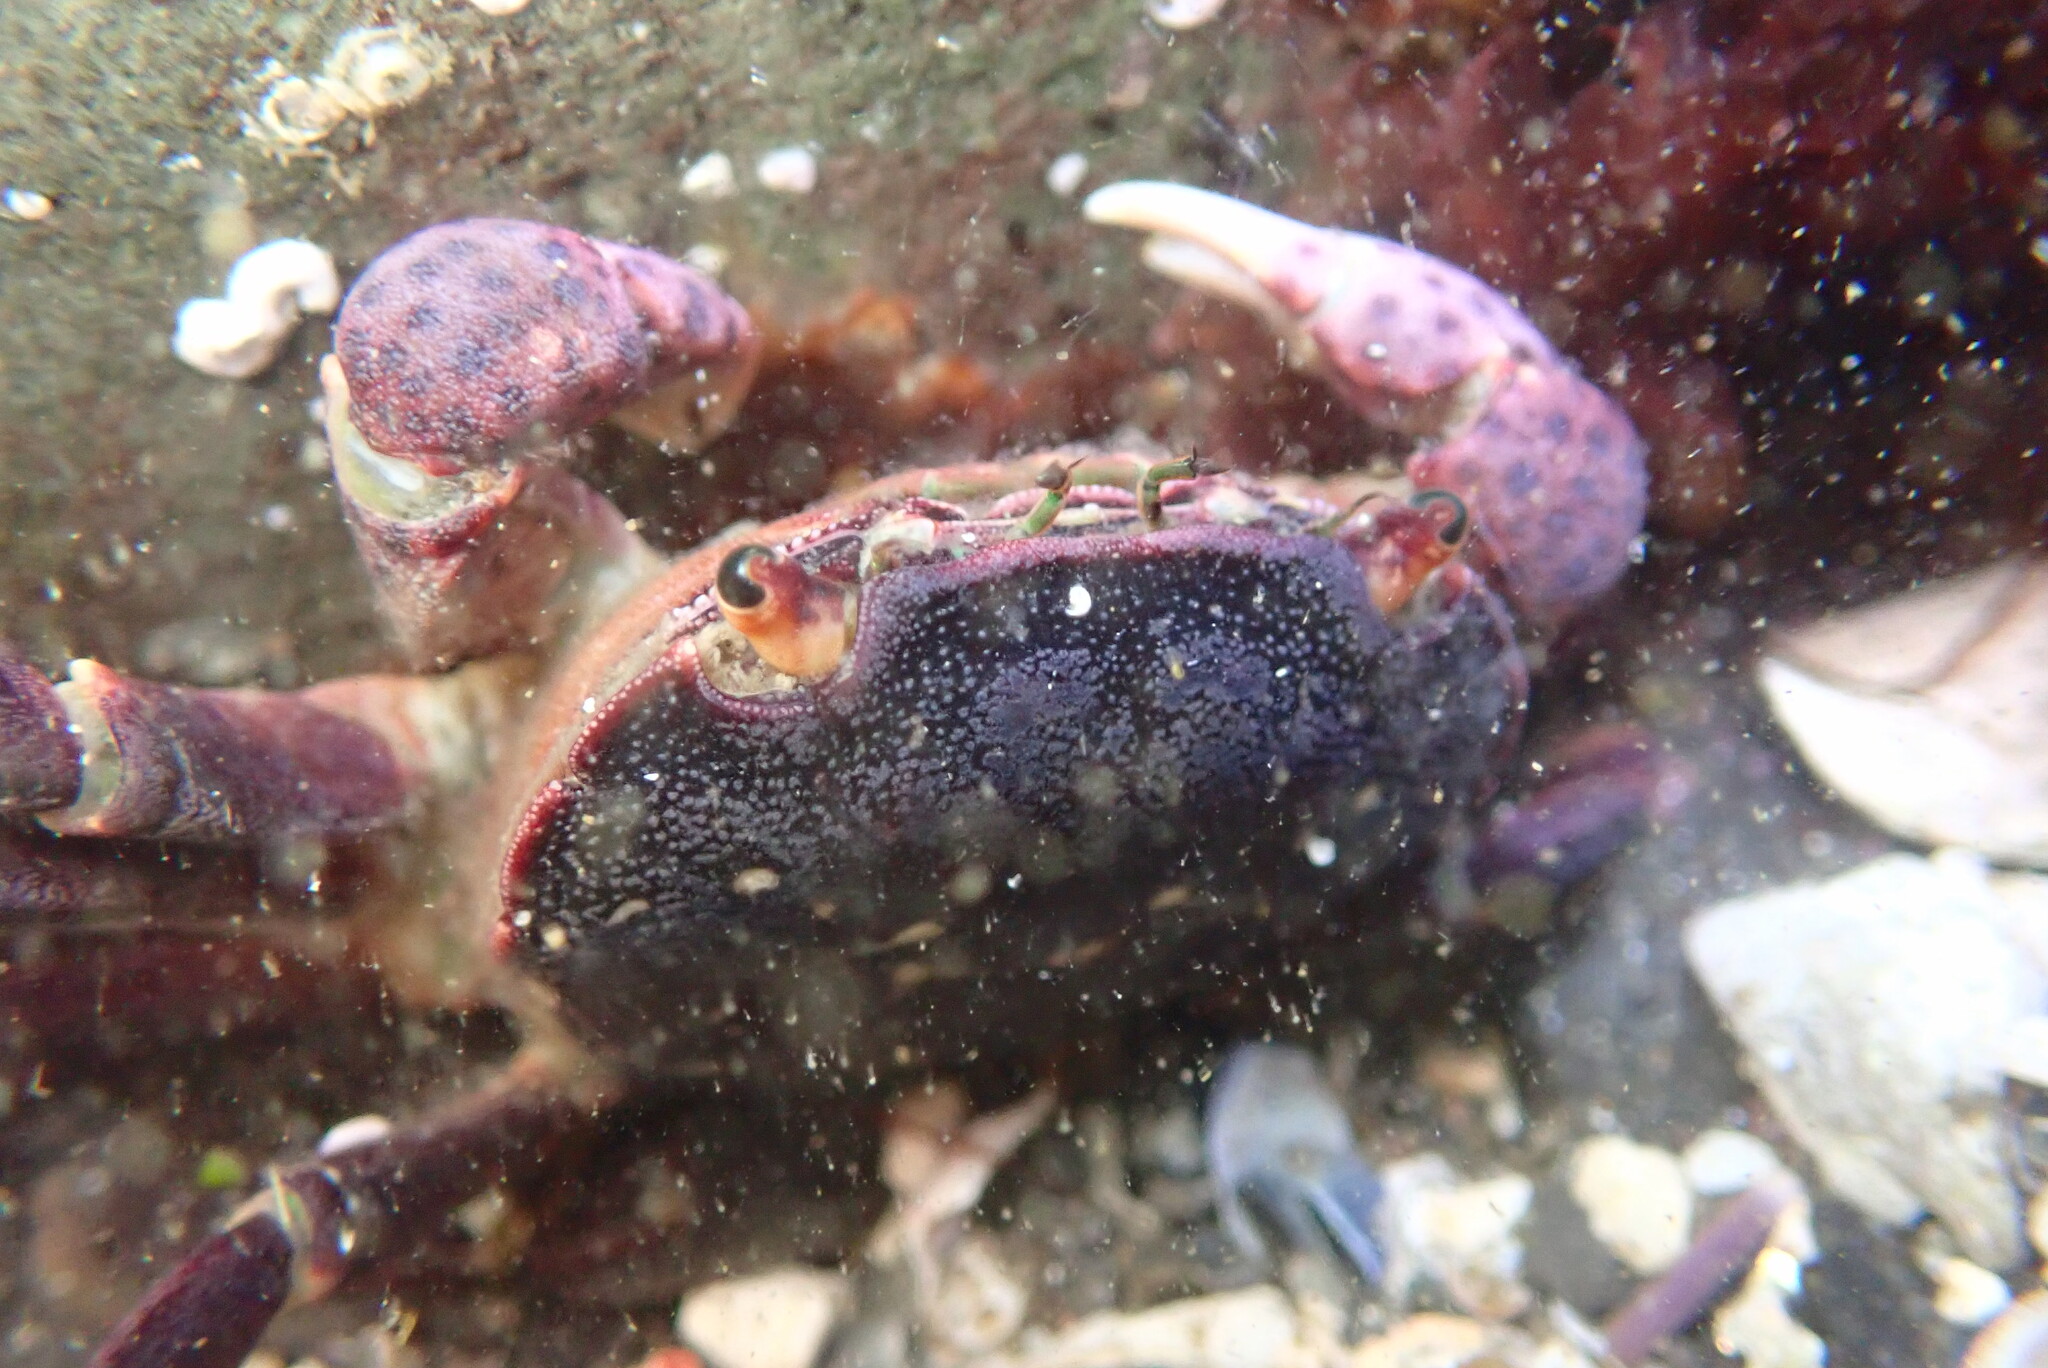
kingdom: Animalia
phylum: Arthropoda
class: Malacostraca
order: Decapoda
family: Varunidae
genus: Hemigrapsus
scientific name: Hemigrapsus nudus
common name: Purple shore crab
